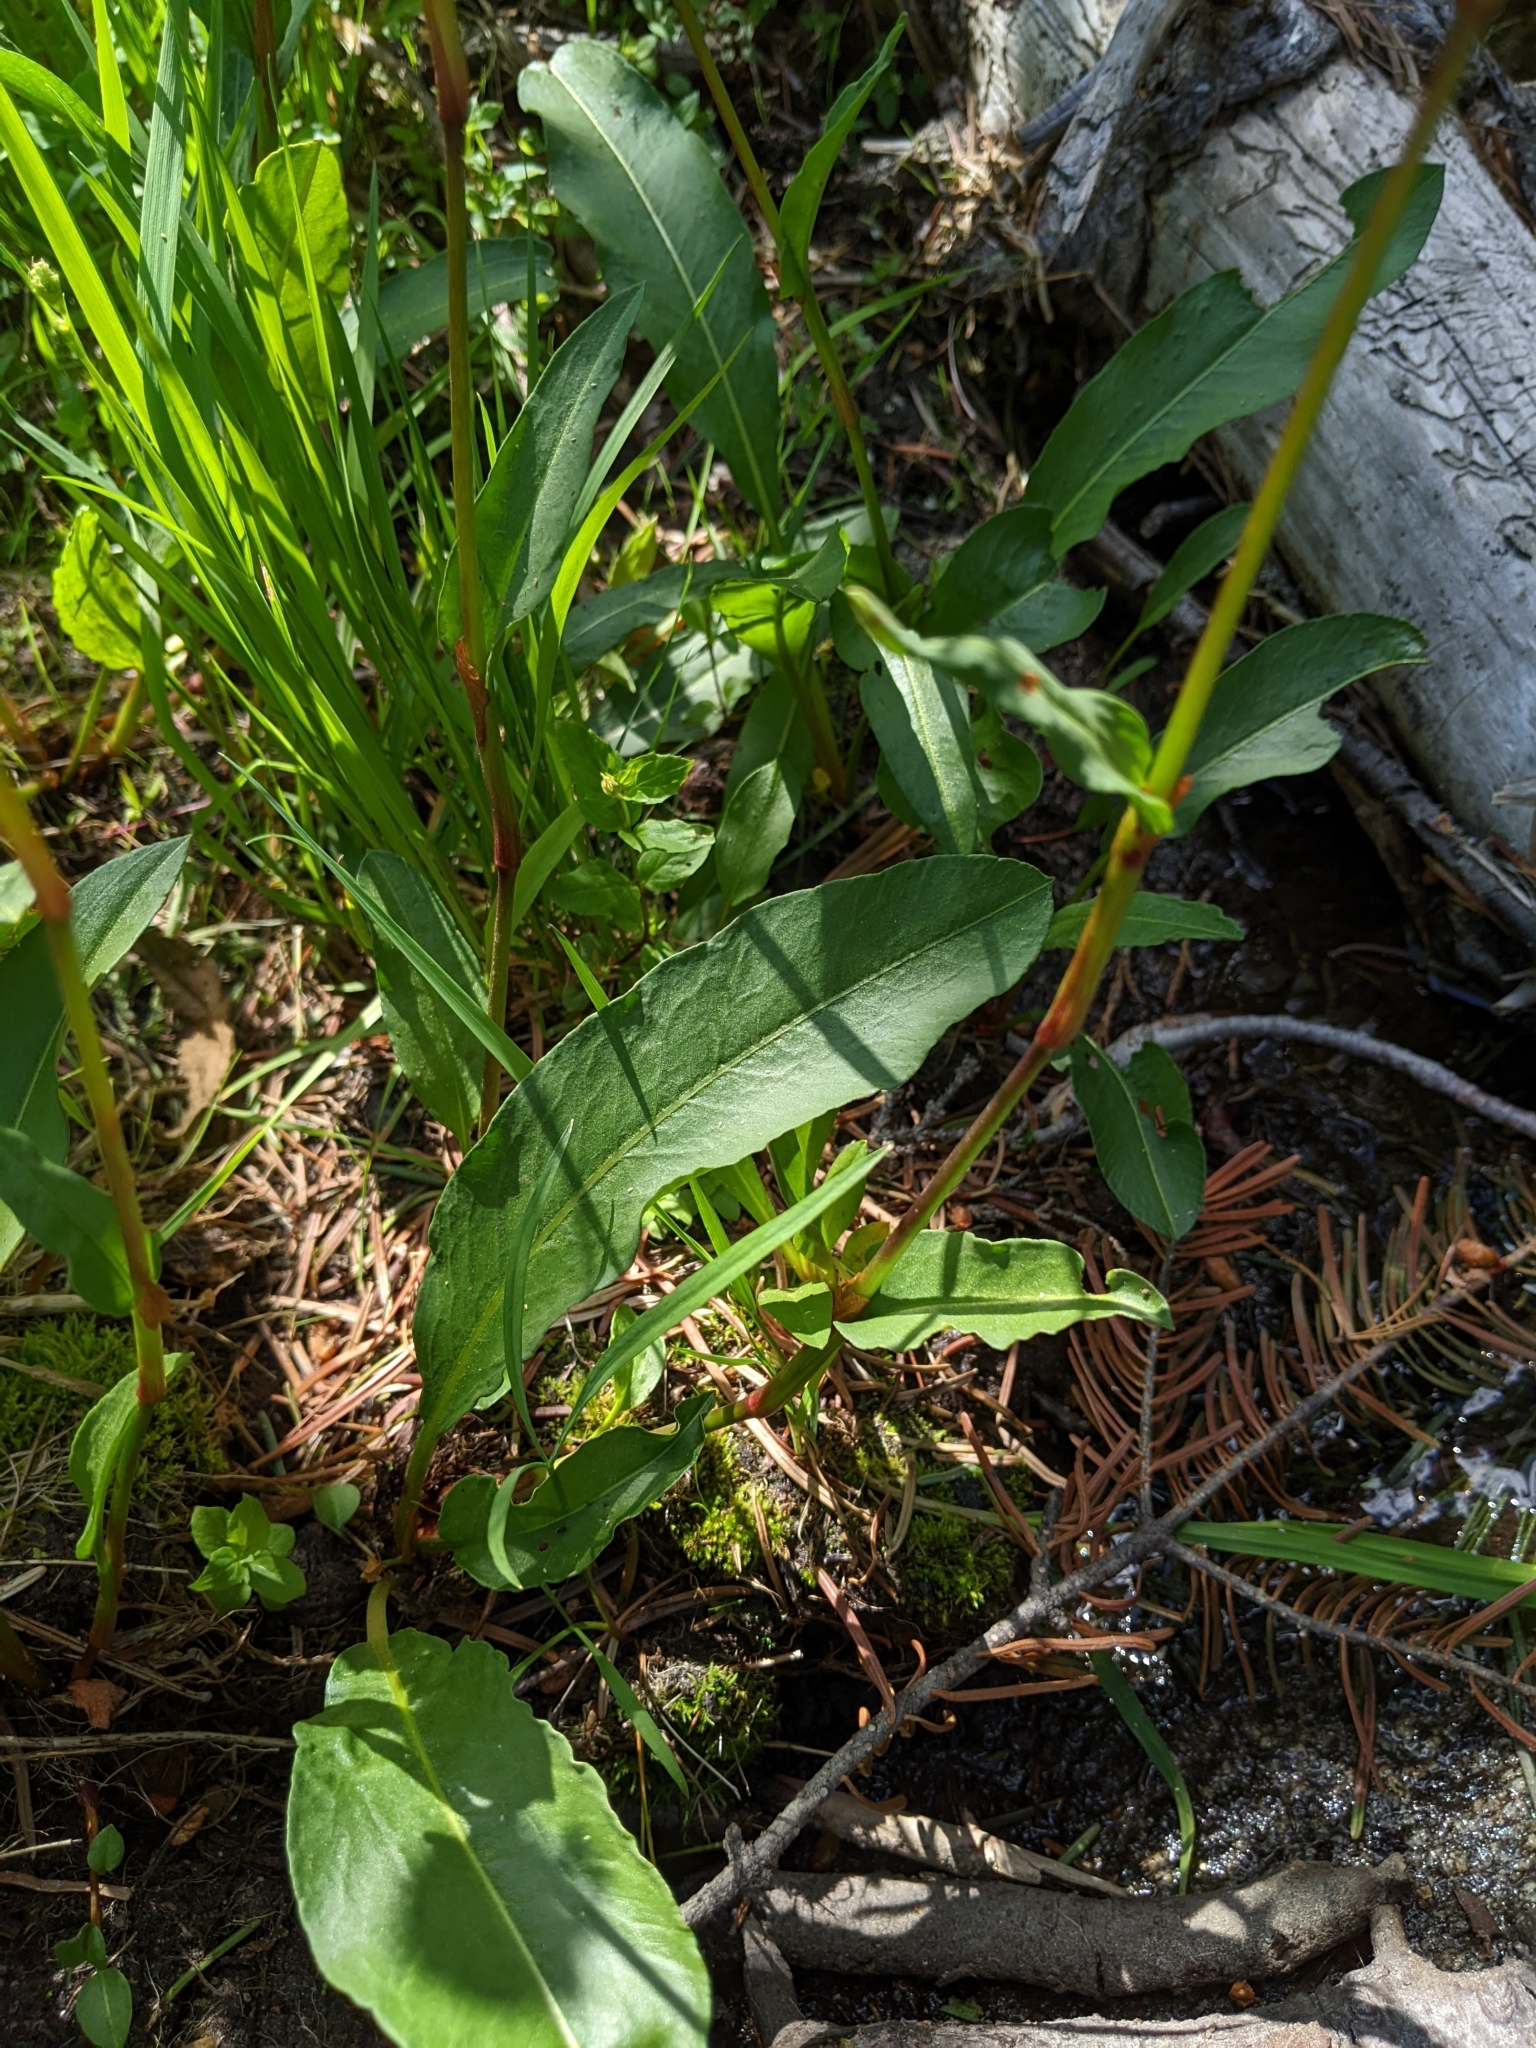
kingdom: Plantae
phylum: Tracheophyta
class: Magnoliopsida
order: Caryophyllales
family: Polygonaceae
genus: Bistorta
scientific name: Bistorta bistortoides
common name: American bistort
